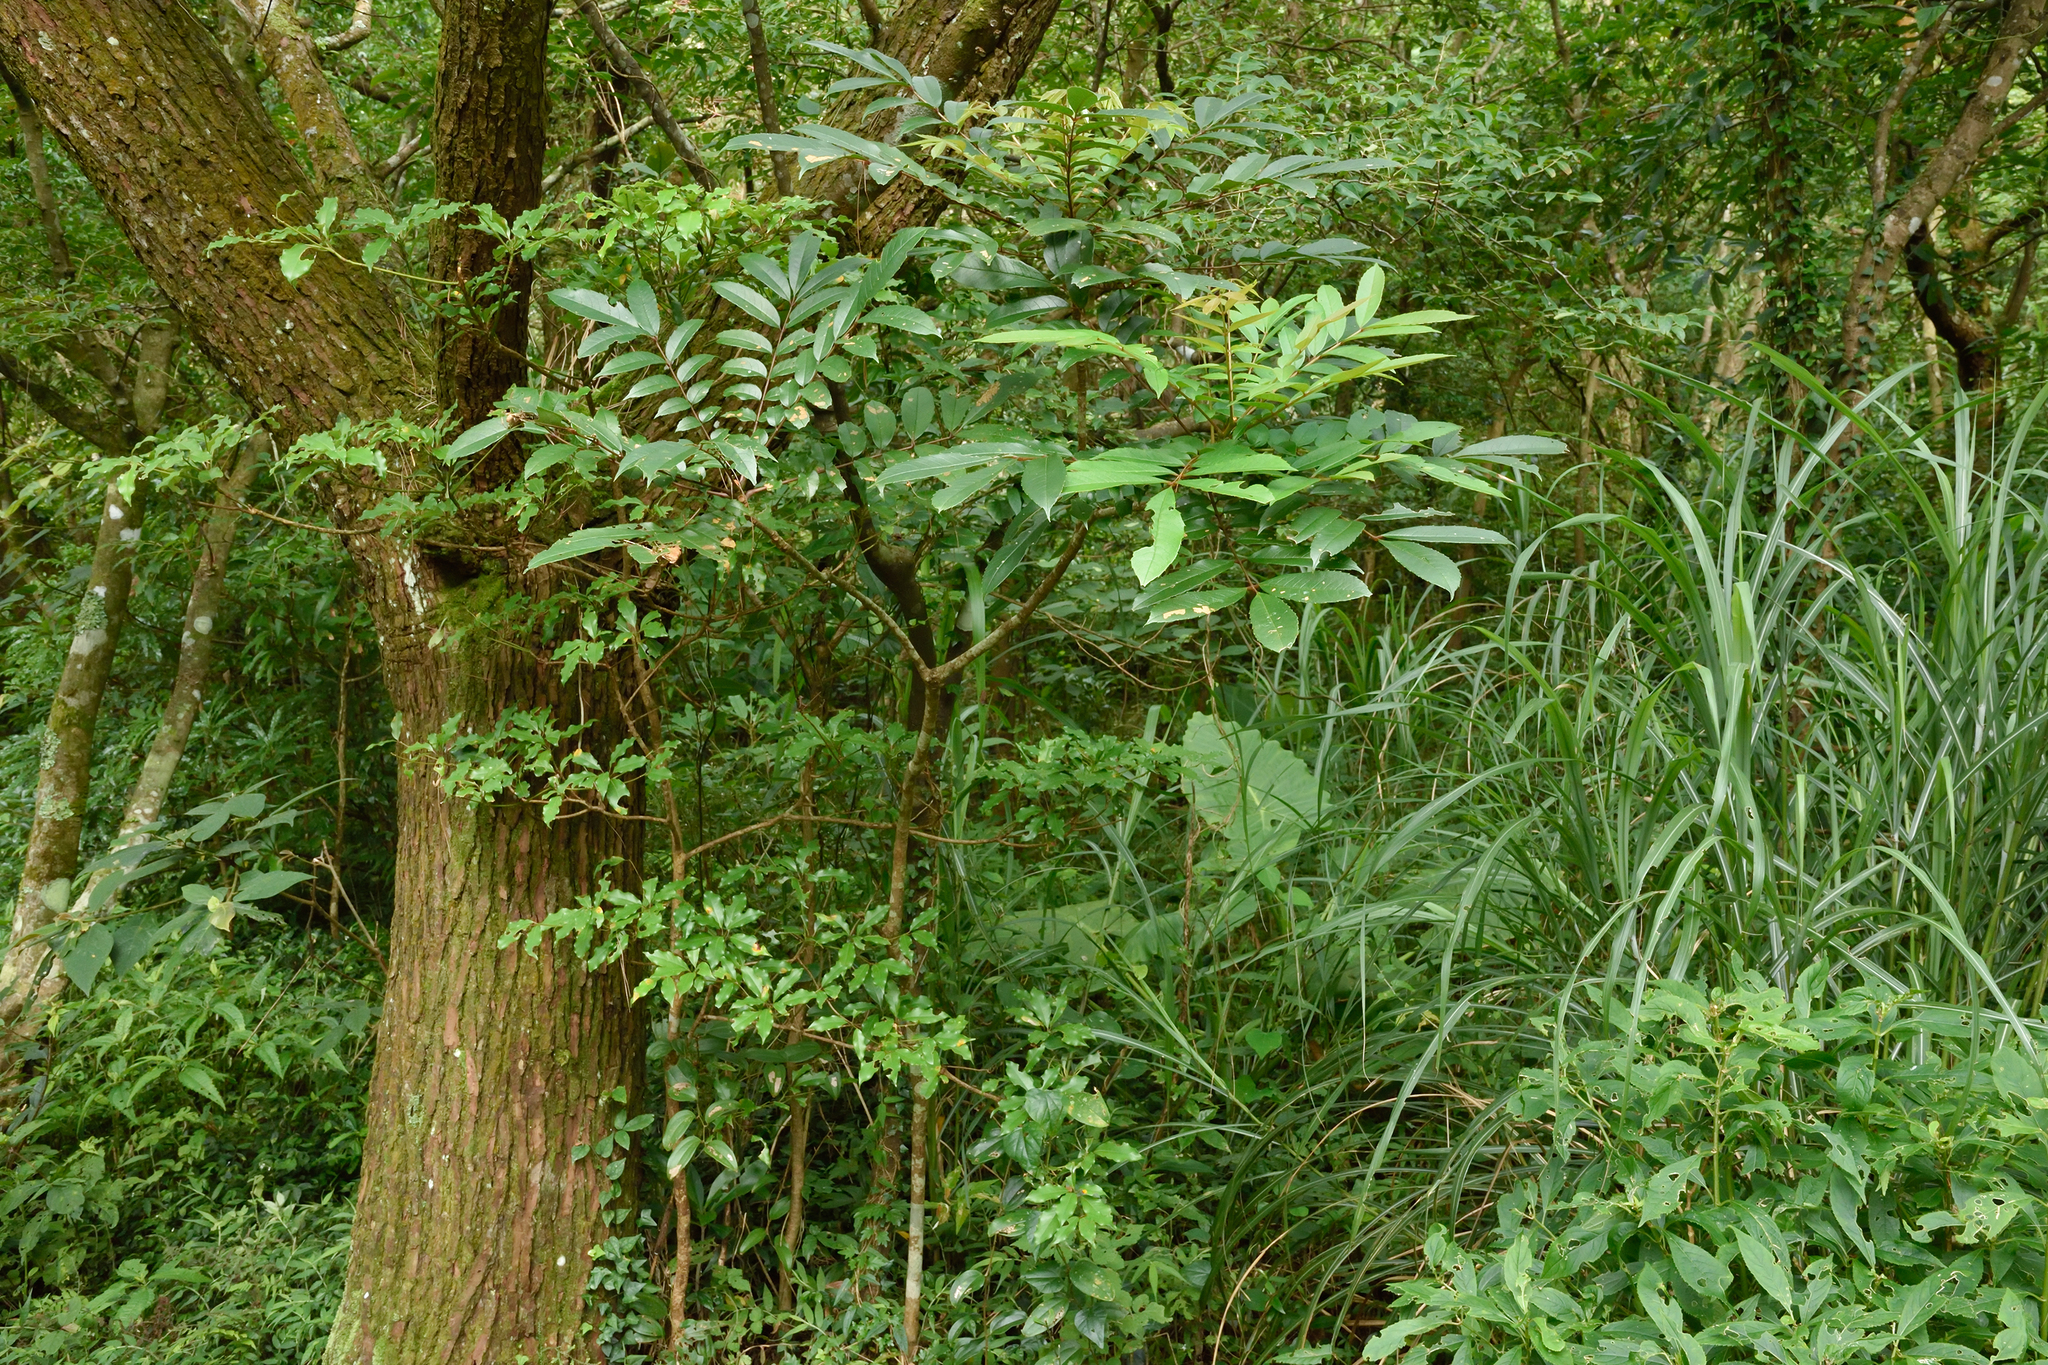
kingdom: Plantae
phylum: Tracheophyta
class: Magnoliopsida
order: Proteales
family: Sabiaceae
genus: Meliosma
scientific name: Meliosma rhoifolia
